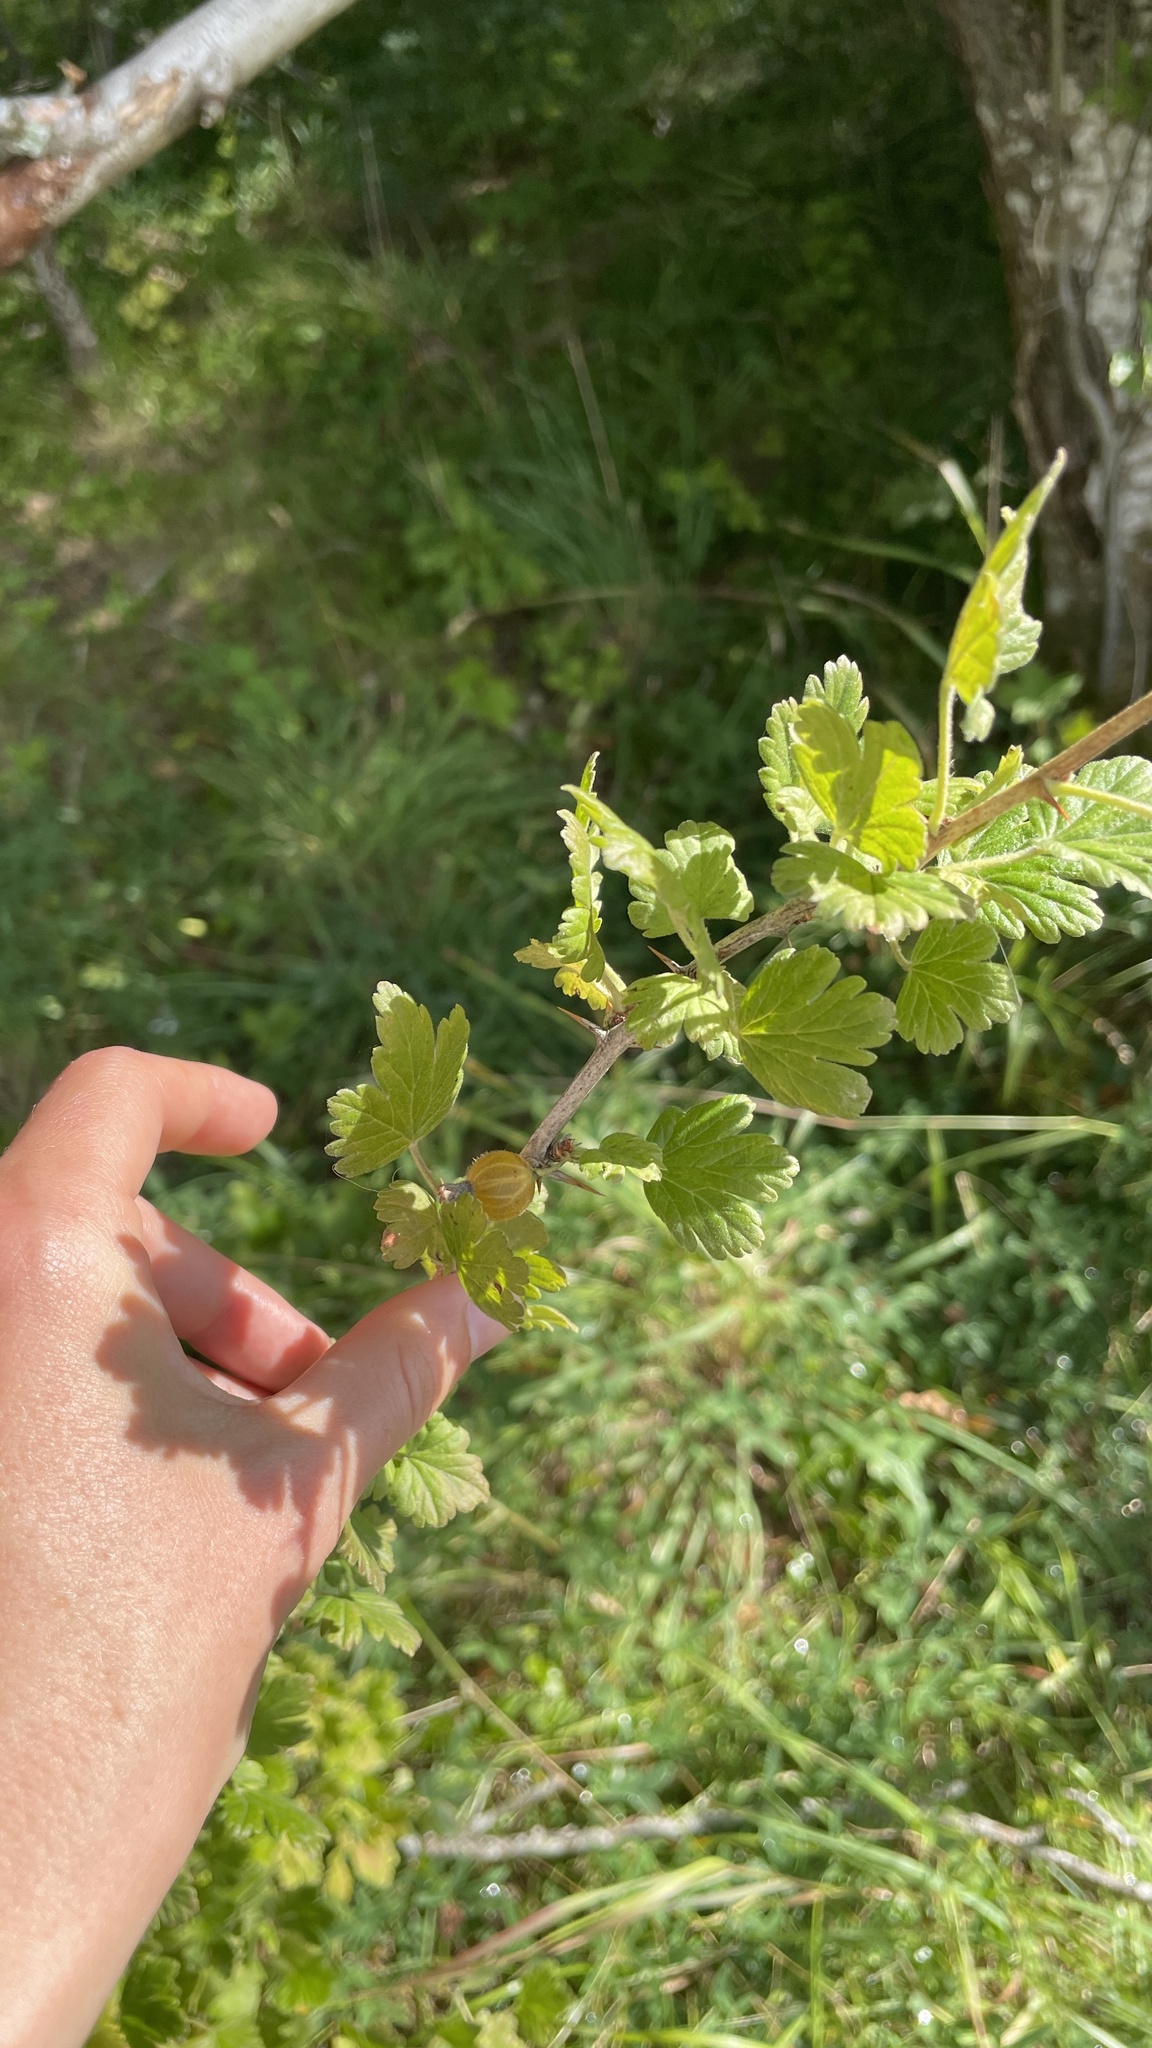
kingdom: Plantae
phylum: Tracheophyta
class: Magnoliopsida
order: Saxifragales
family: Grossulariaceae
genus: Ribes
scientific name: Ribes uva-crispa
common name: Gooseberry
